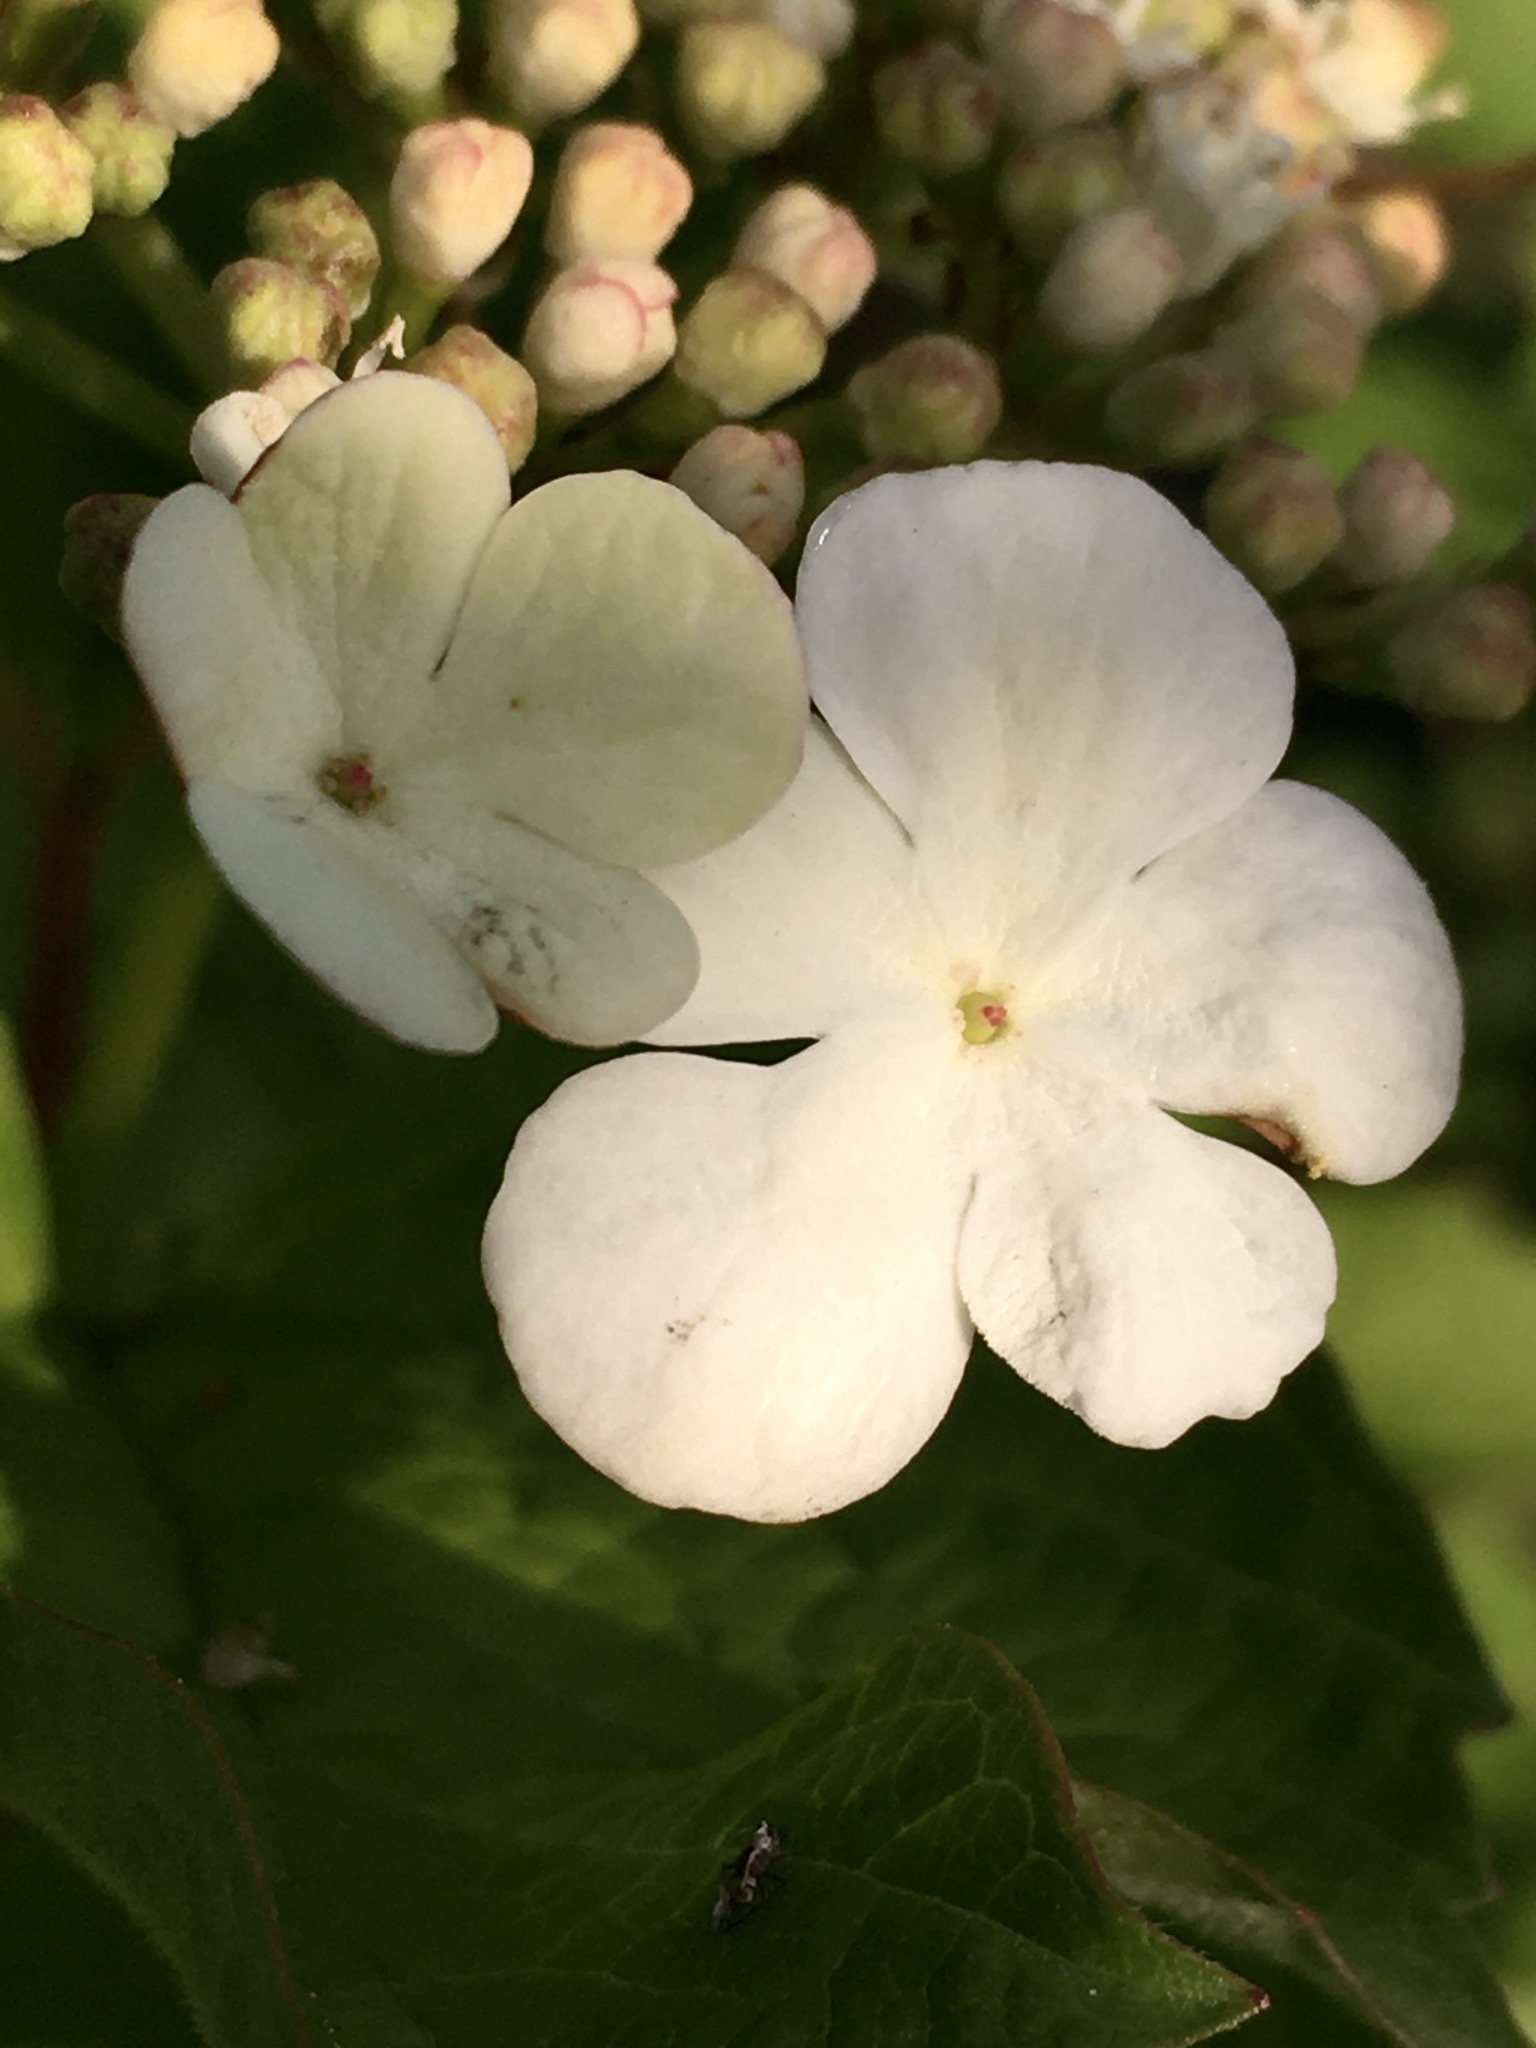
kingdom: Plantae
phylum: Tracheophyta
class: Magnoliopsida
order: Dipsacales
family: Viburnaceae
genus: Viburnum
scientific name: Viburnum opulus
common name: Guelder-rose
